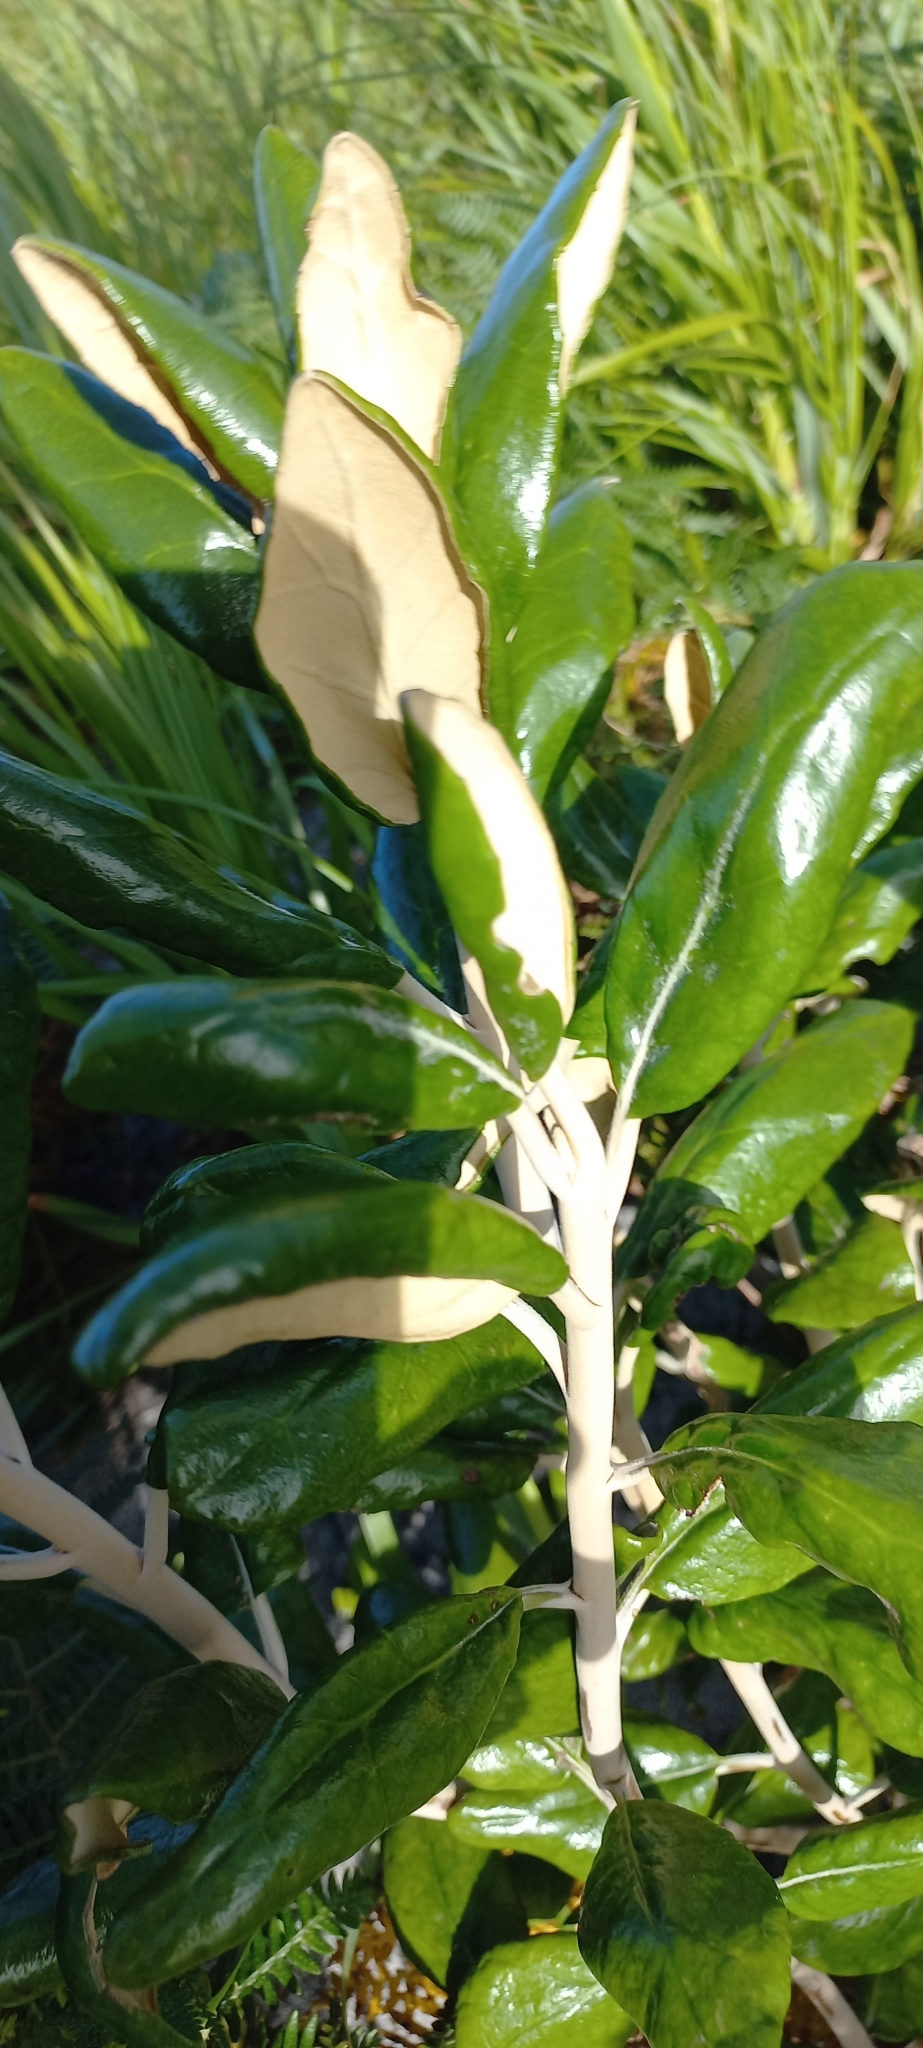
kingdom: Plantae
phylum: Tracheophyta
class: Magnoliopsida
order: Asterales
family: Asteraceae
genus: Capelio
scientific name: Capelio tabularis
